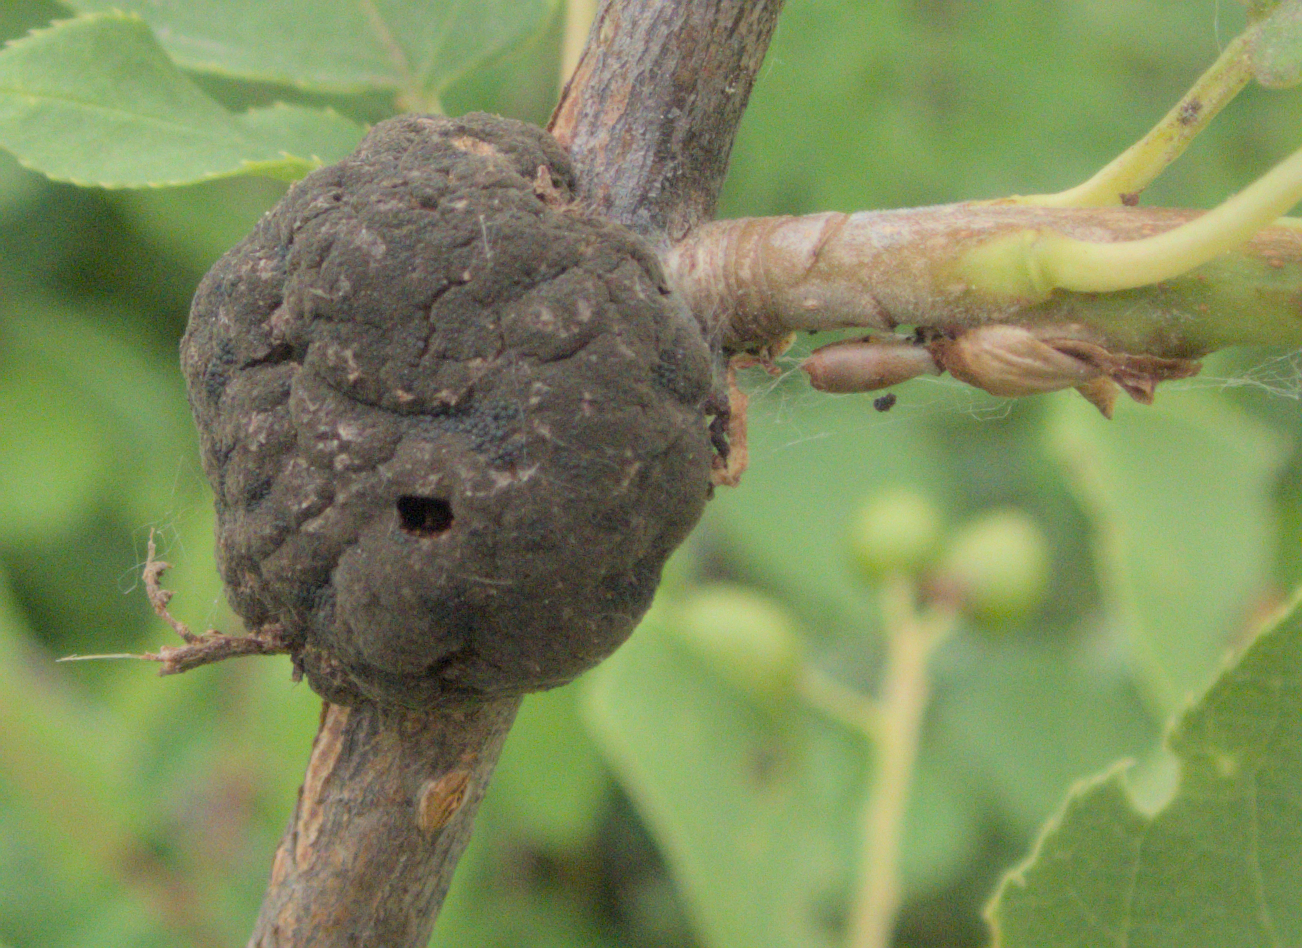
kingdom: Fungi
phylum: Ascomycota
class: Dothideomycetes
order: Venturiales
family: Venturiaceae
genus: Apiosporina
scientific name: Apiosporina morbosa
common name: Black knot
